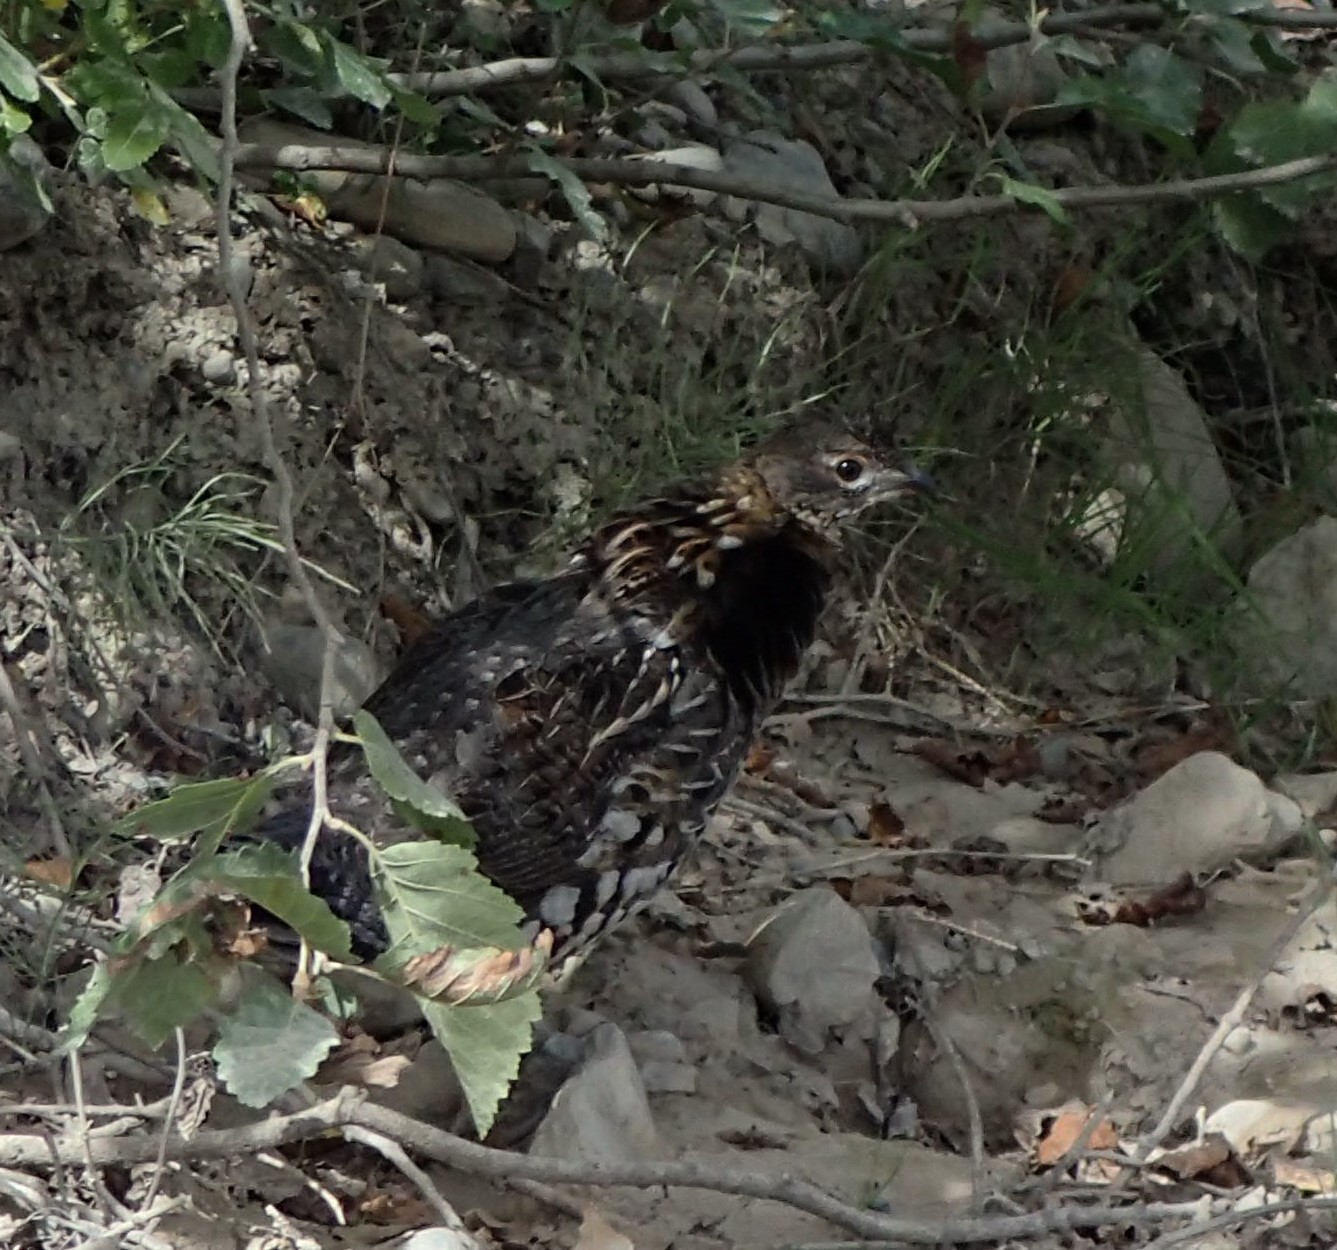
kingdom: Animalia
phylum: Chordata
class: Aves
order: Galliformes
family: Phasianidae
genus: Bonasa
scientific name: Bonasa umbellus
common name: Ruffed grouse
